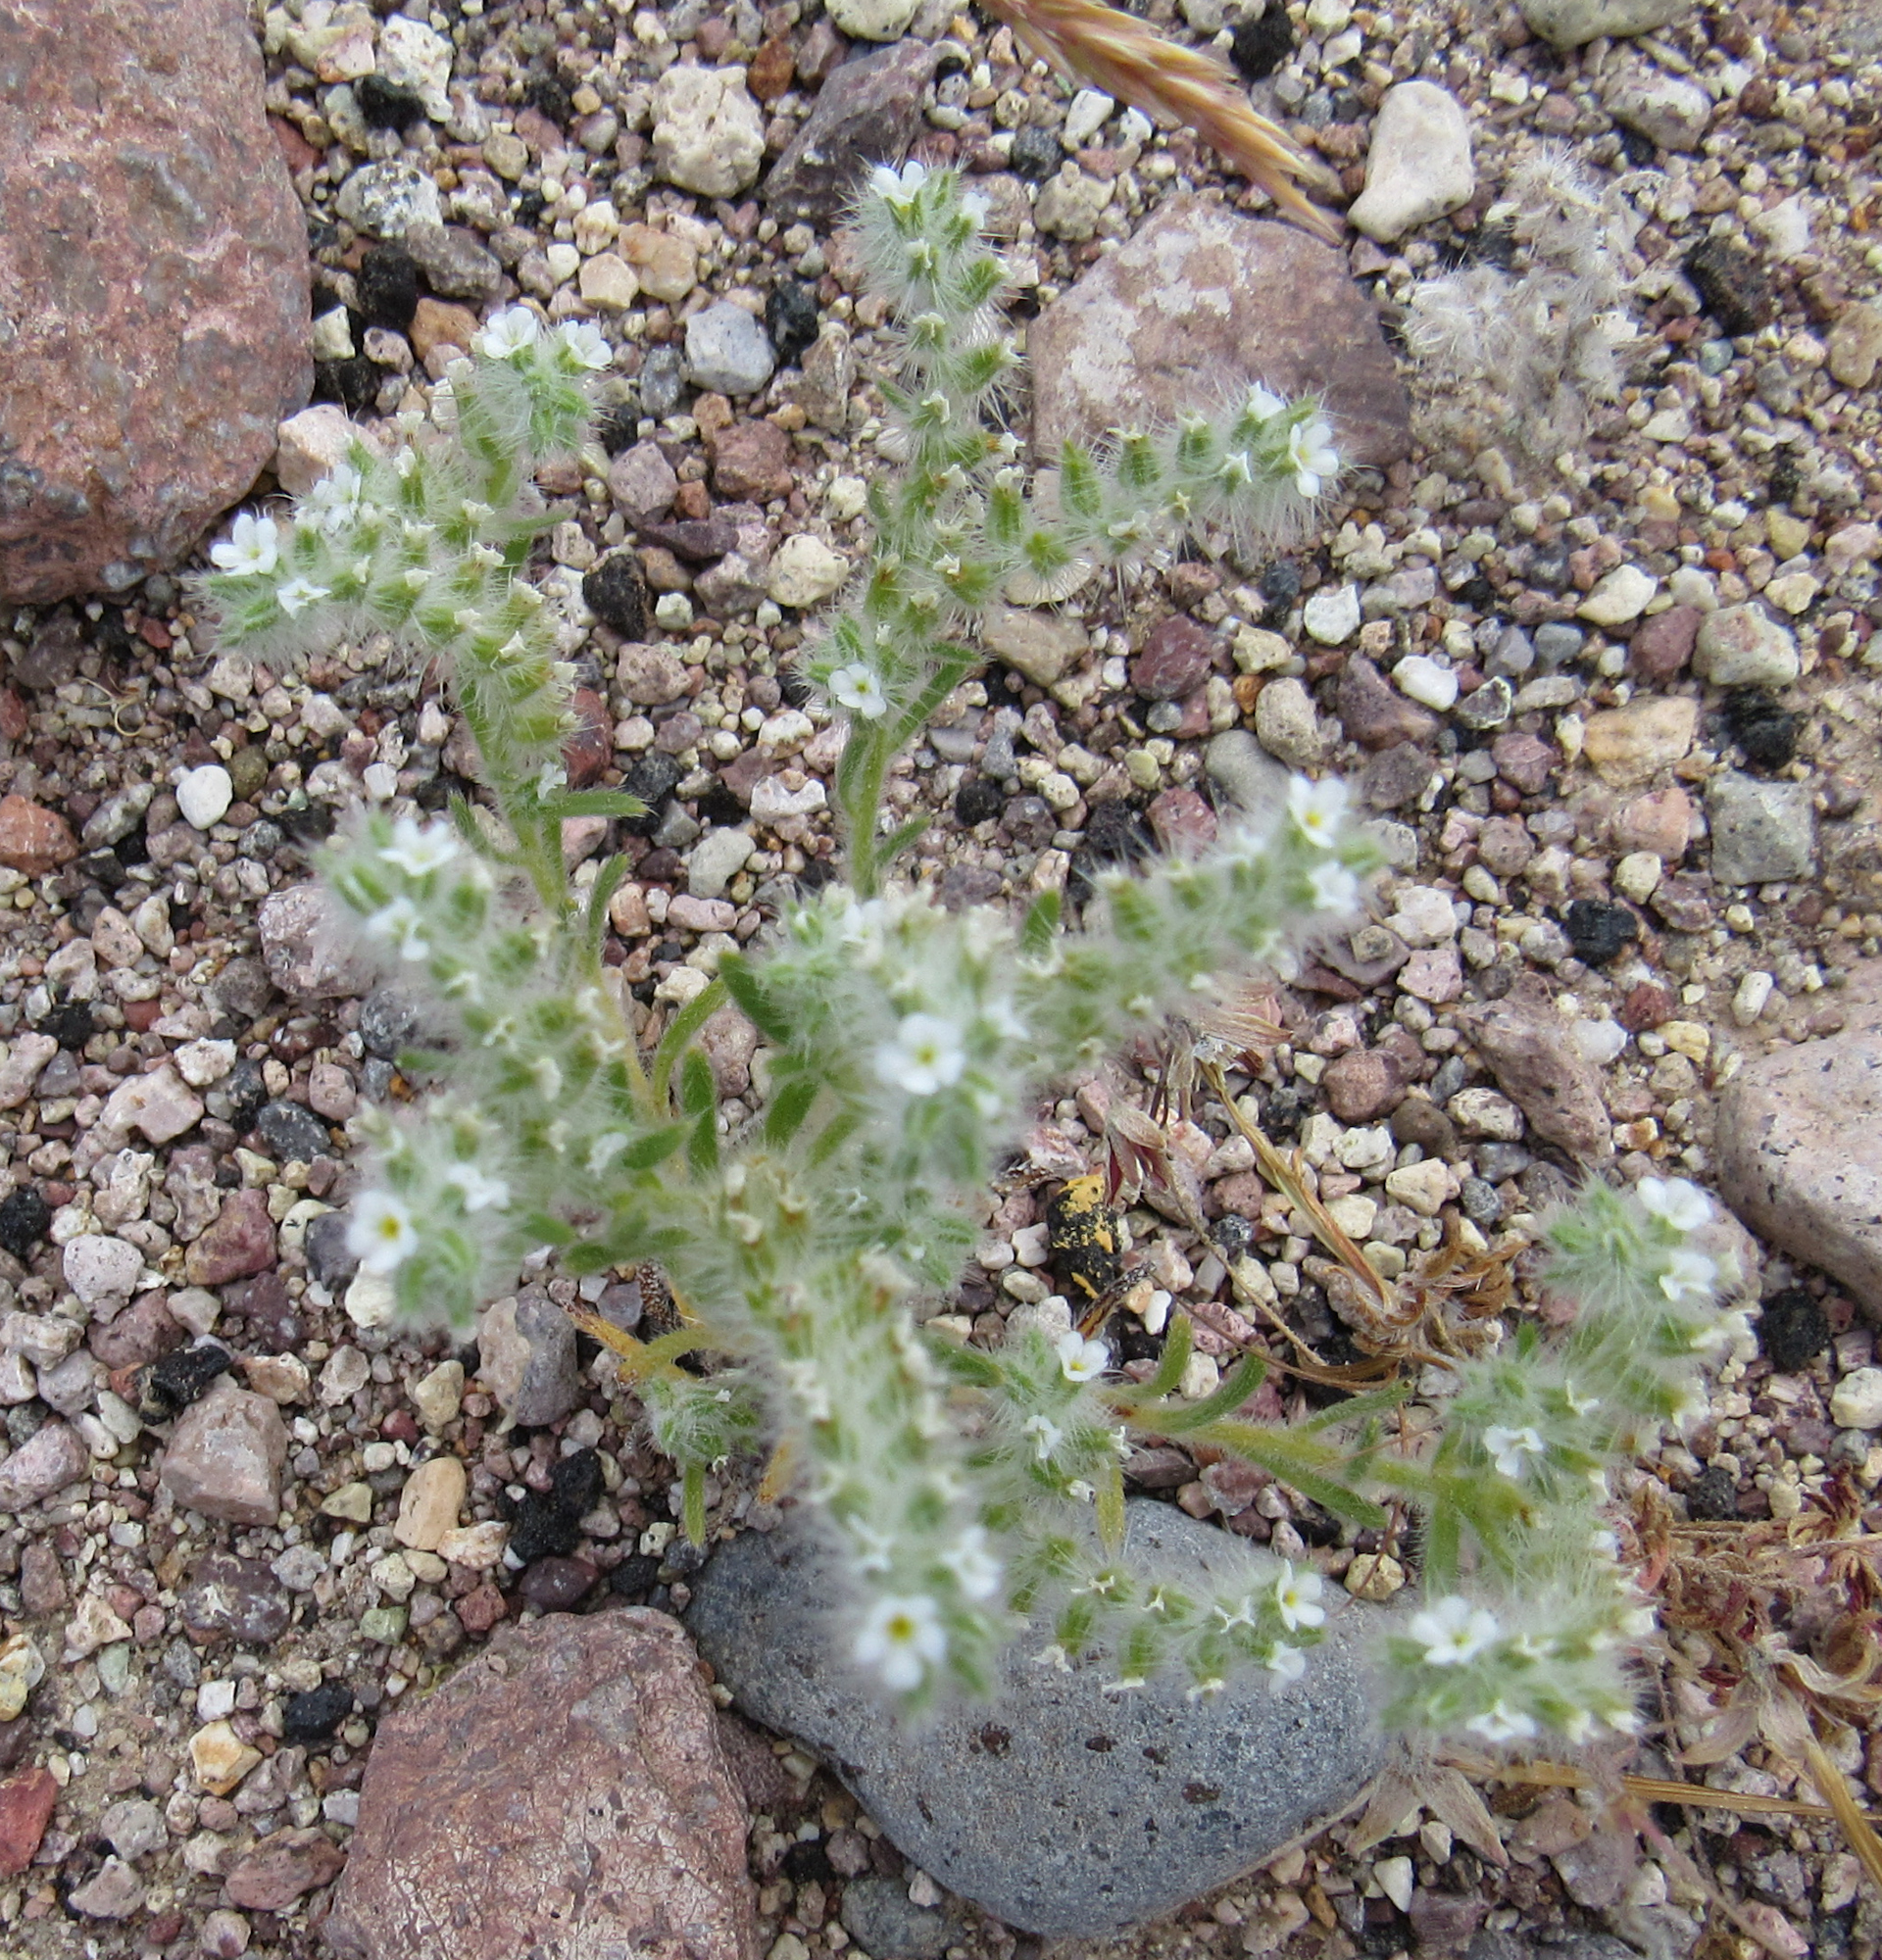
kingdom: Plantae
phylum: Tracheophyta
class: Magnoliopsida
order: Boraginales
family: Boraginaceae
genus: Johnstonella
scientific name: Johnstonella angustifolia
